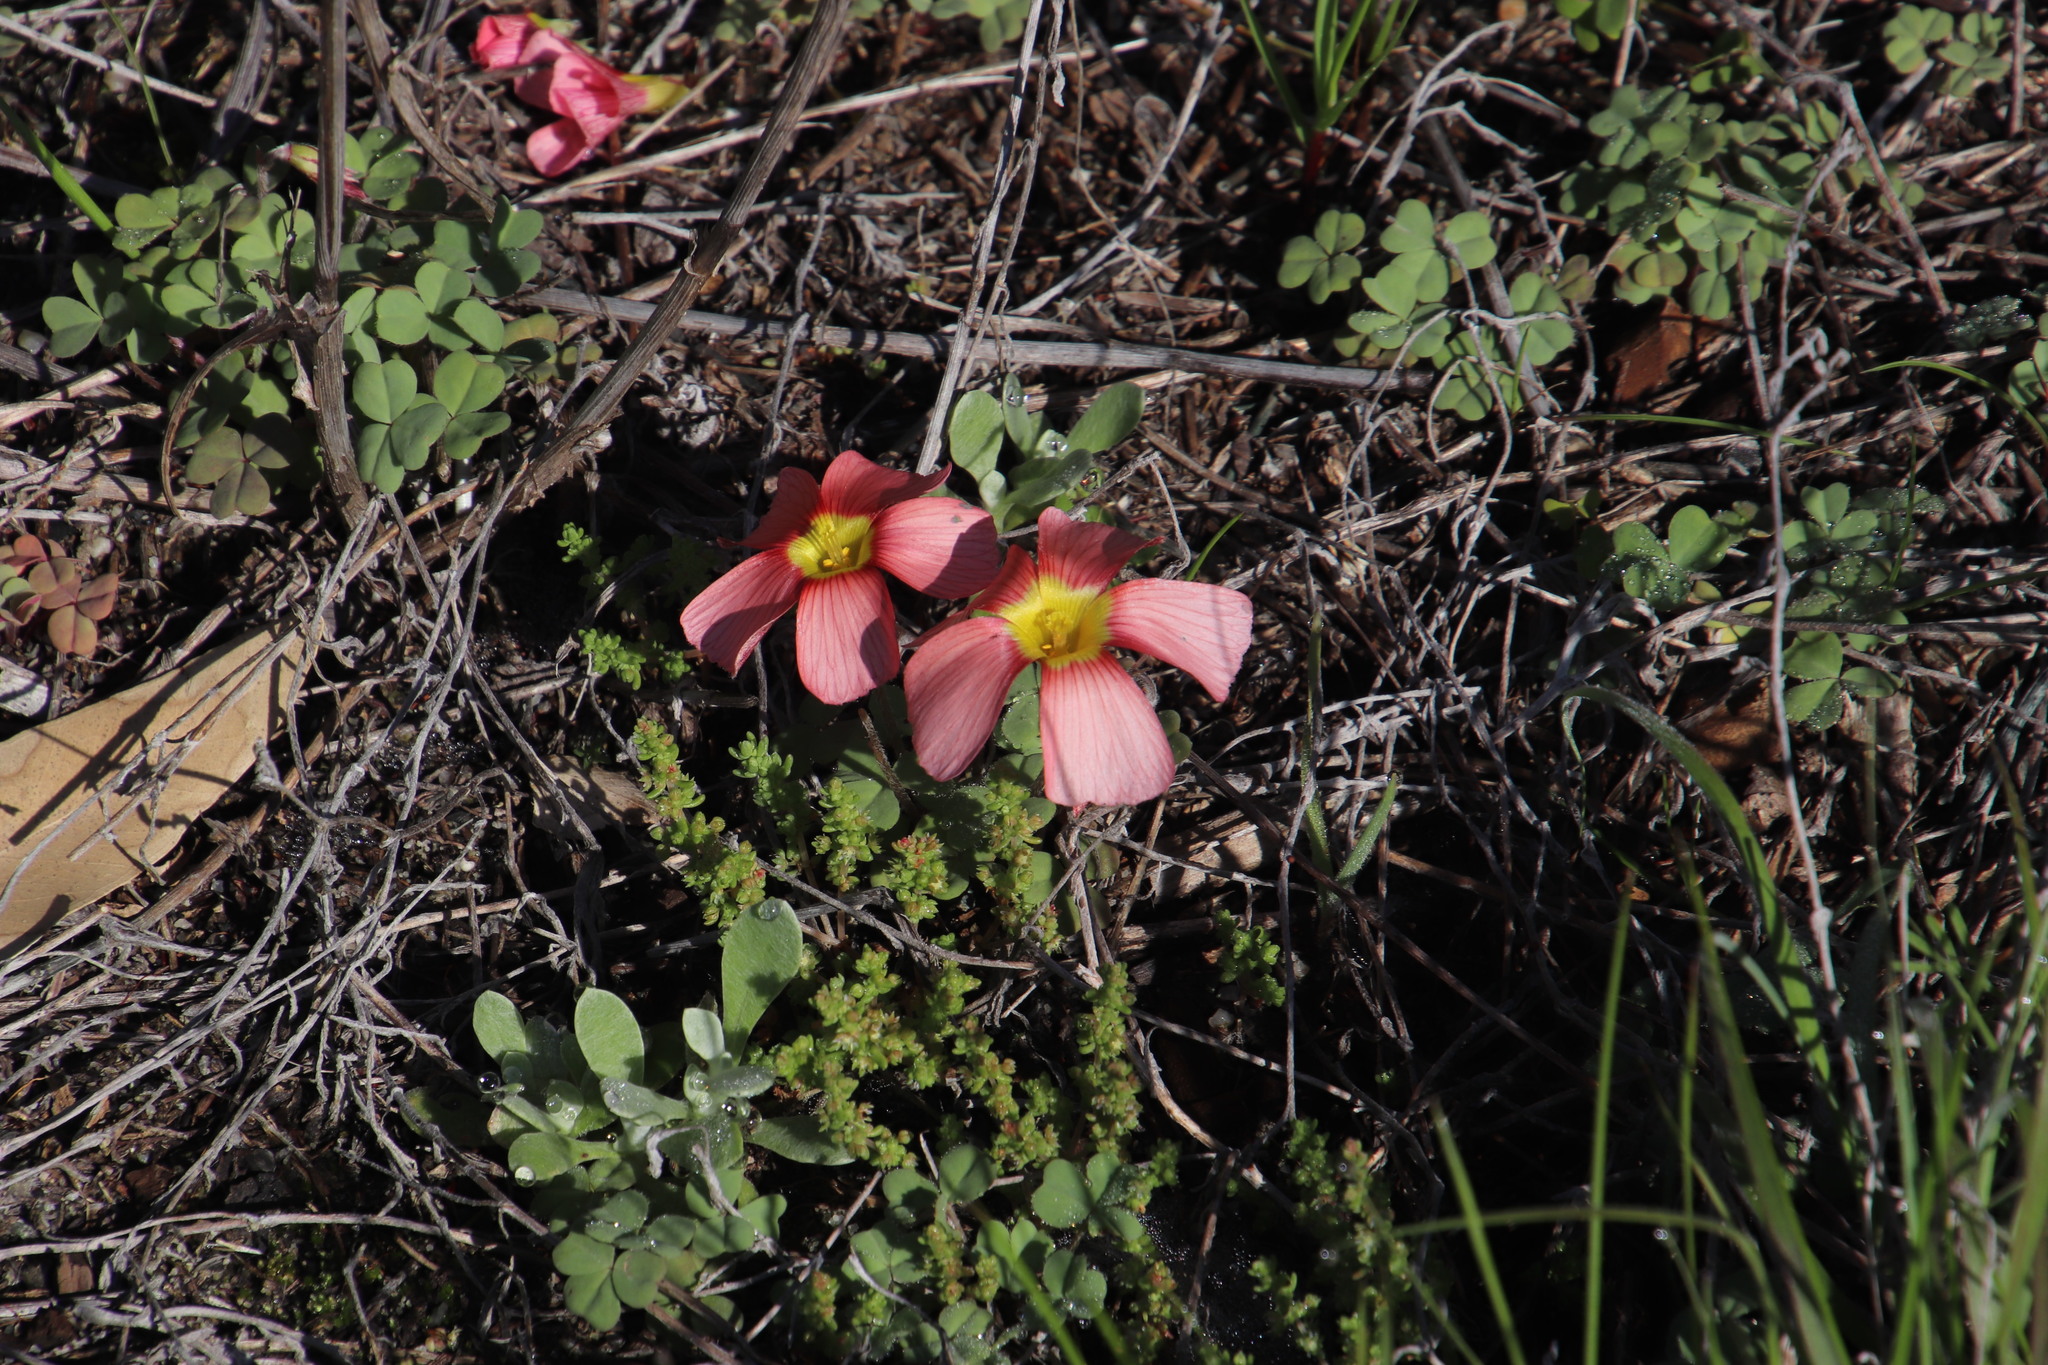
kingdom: Plantae
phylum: Tracheophyta
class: Magnoliopsida
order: Oxalidales
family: Oxalidaceae
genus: Oxalis
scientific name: Oxalis obtusa
